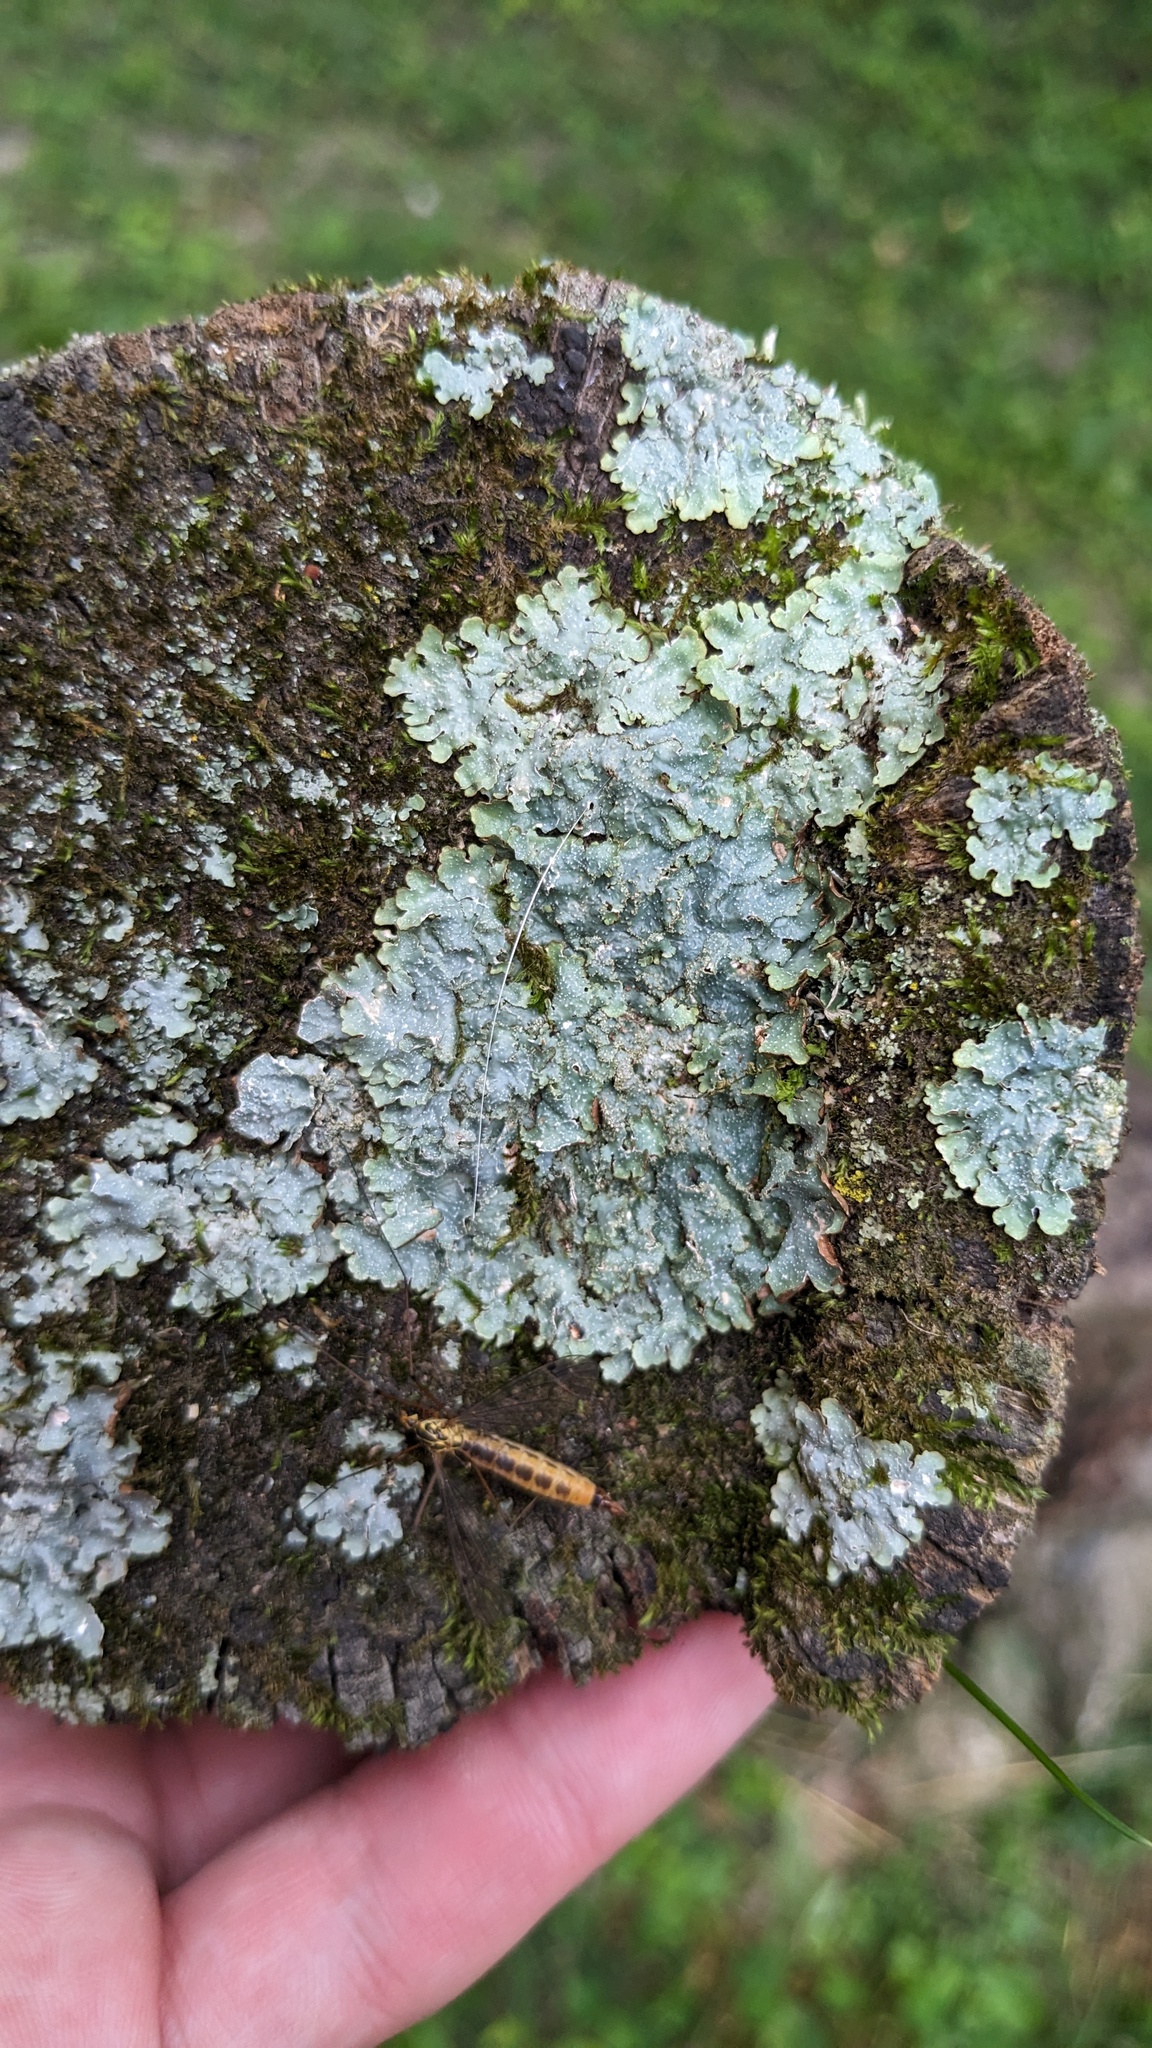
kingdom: Fungi
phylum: Ascomycota
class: Lecanoromycetes
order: Lecanorales
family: Parmeliaceae
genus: Punctelia
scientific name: Punctelia rudecta
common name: Rough speckled shield lichen
